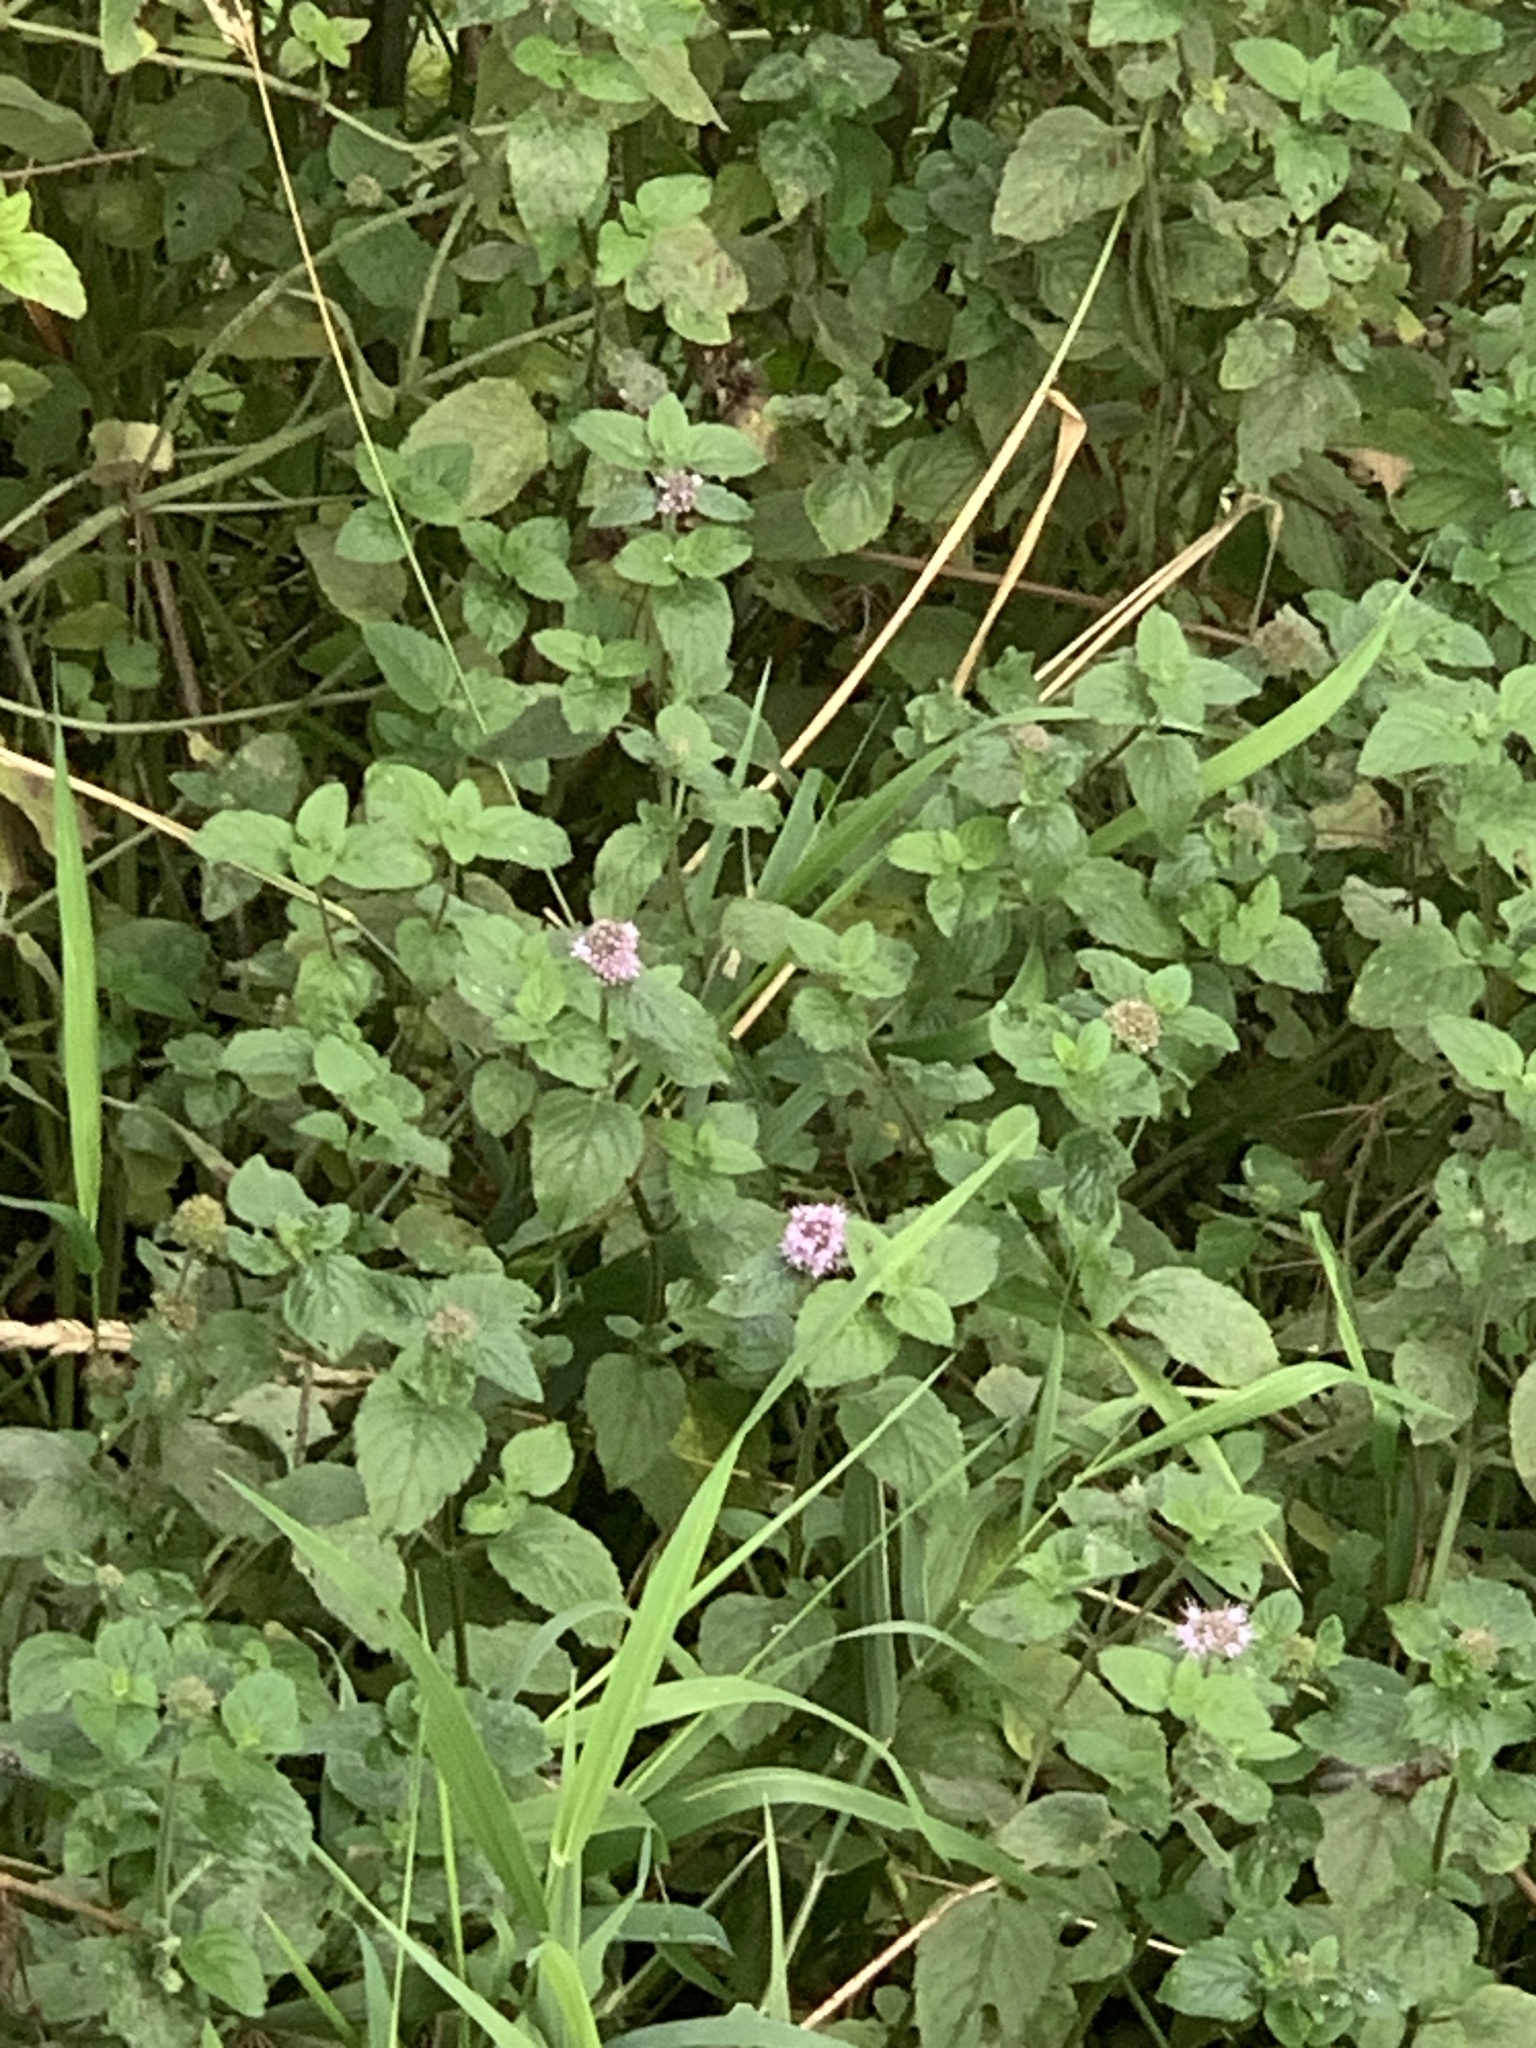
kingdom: Plantae
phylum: Tracheophyta
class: Magnoliopsida
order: Lamiales
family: Lamiaceae
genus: Mentha
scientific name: Mentha aquatica
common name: Water mint
